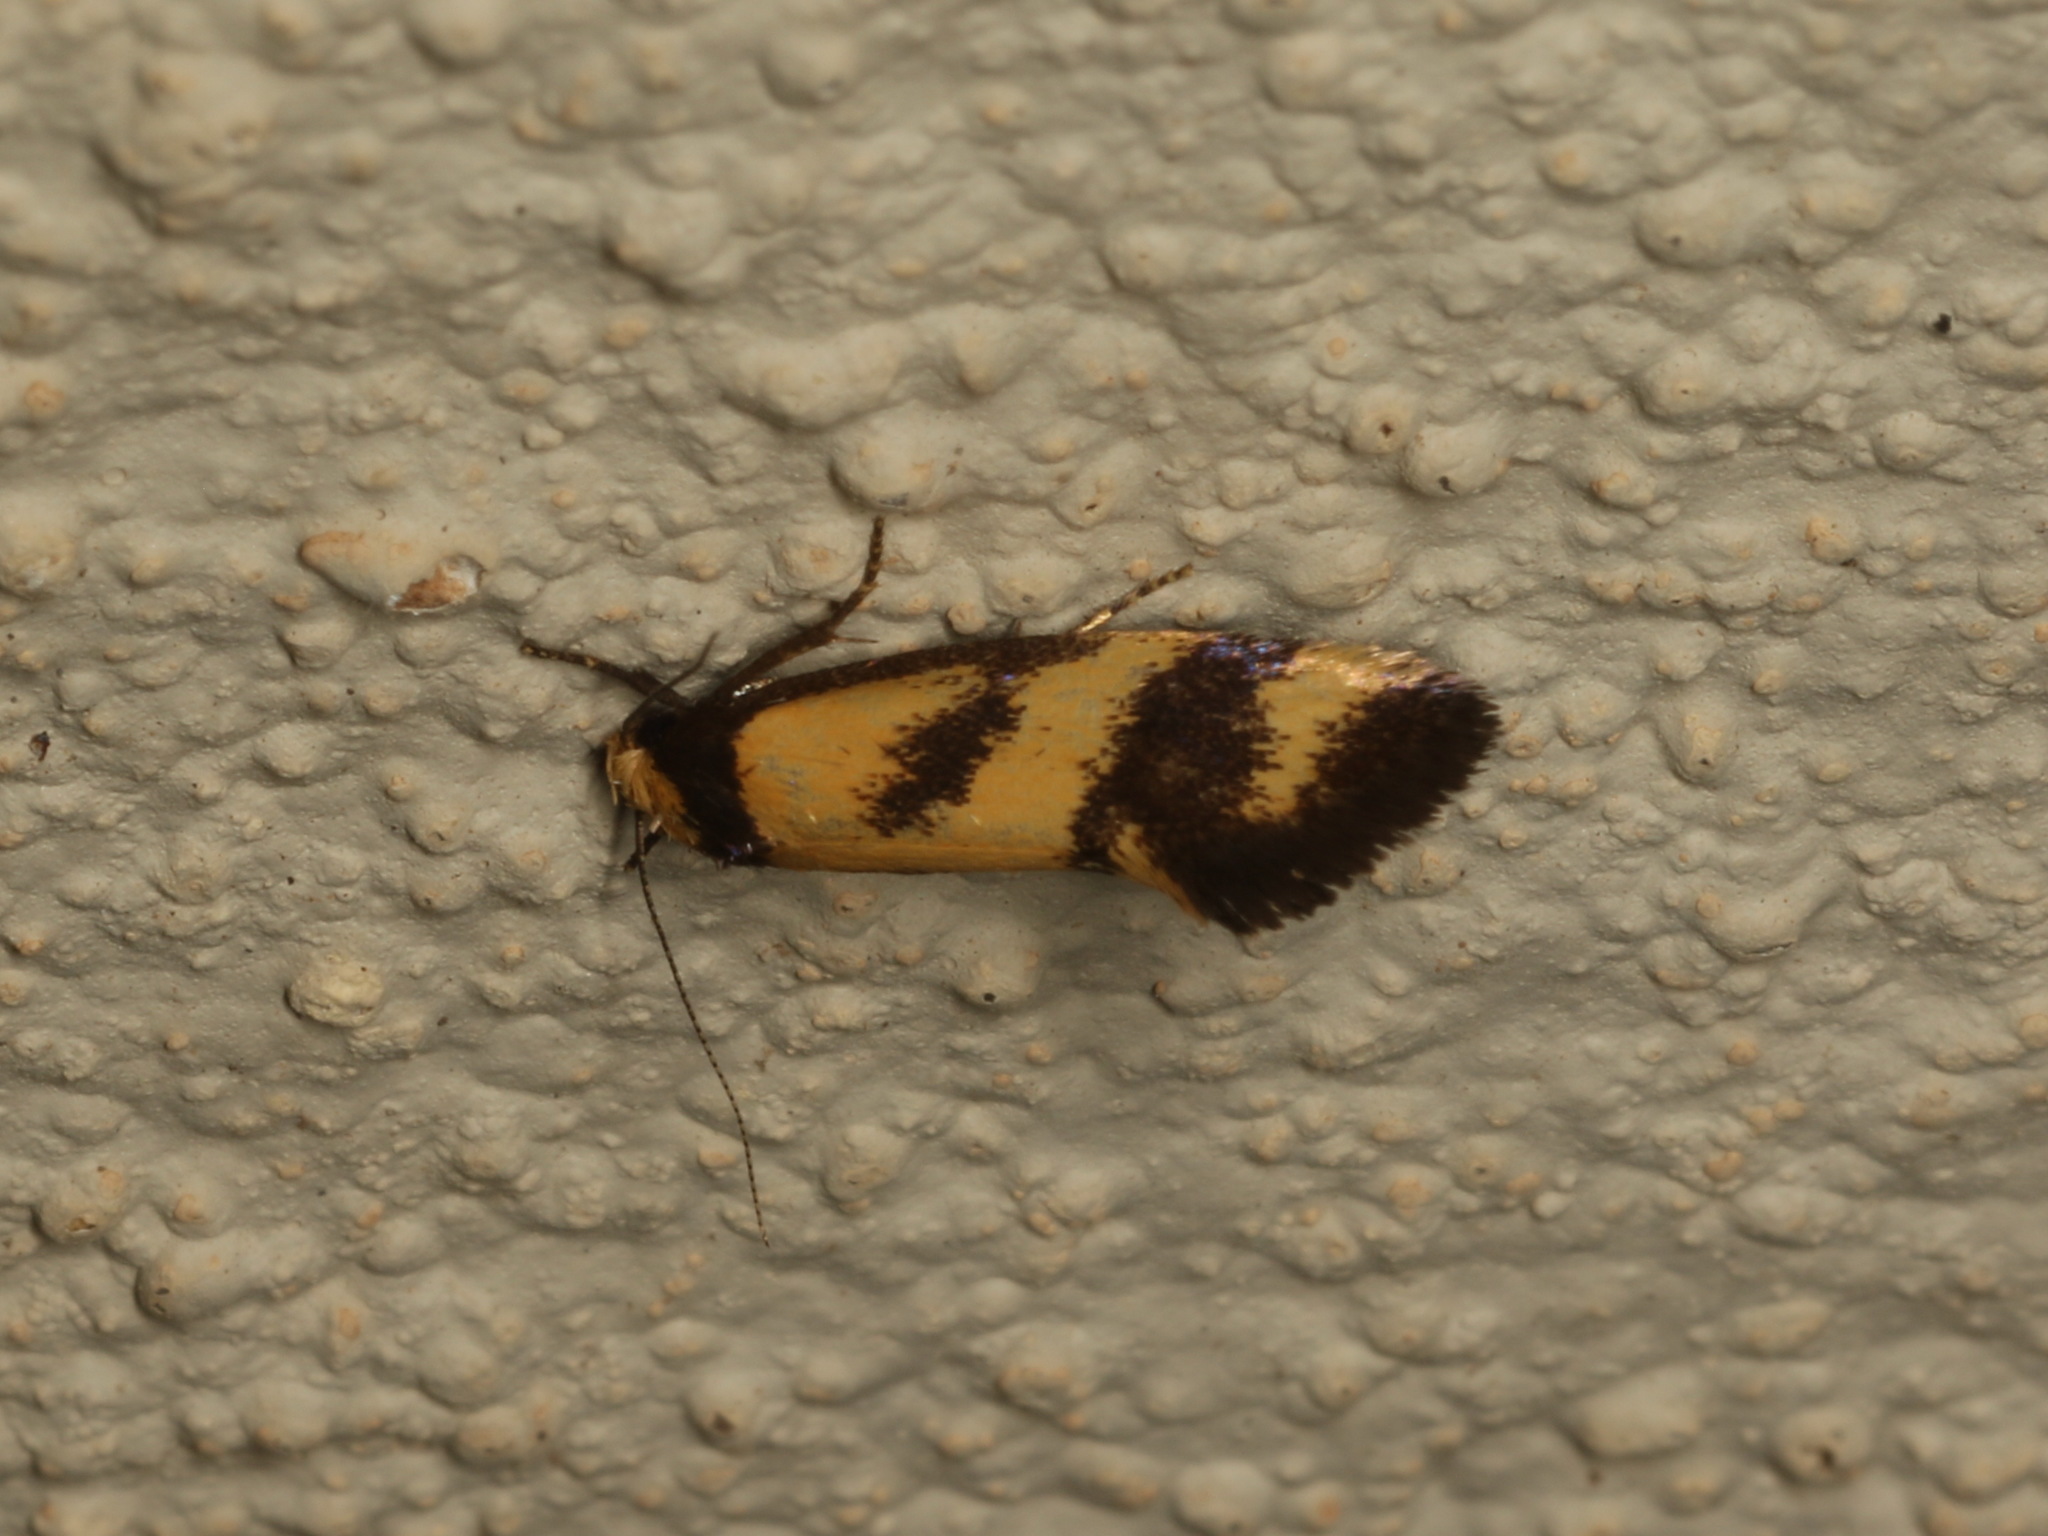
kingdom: Animalia
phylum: Arthropoda
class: Insecta
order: Lepidoptera
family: Oecophoridae
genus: Olbonoma
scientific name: Olbonoma triptycha
